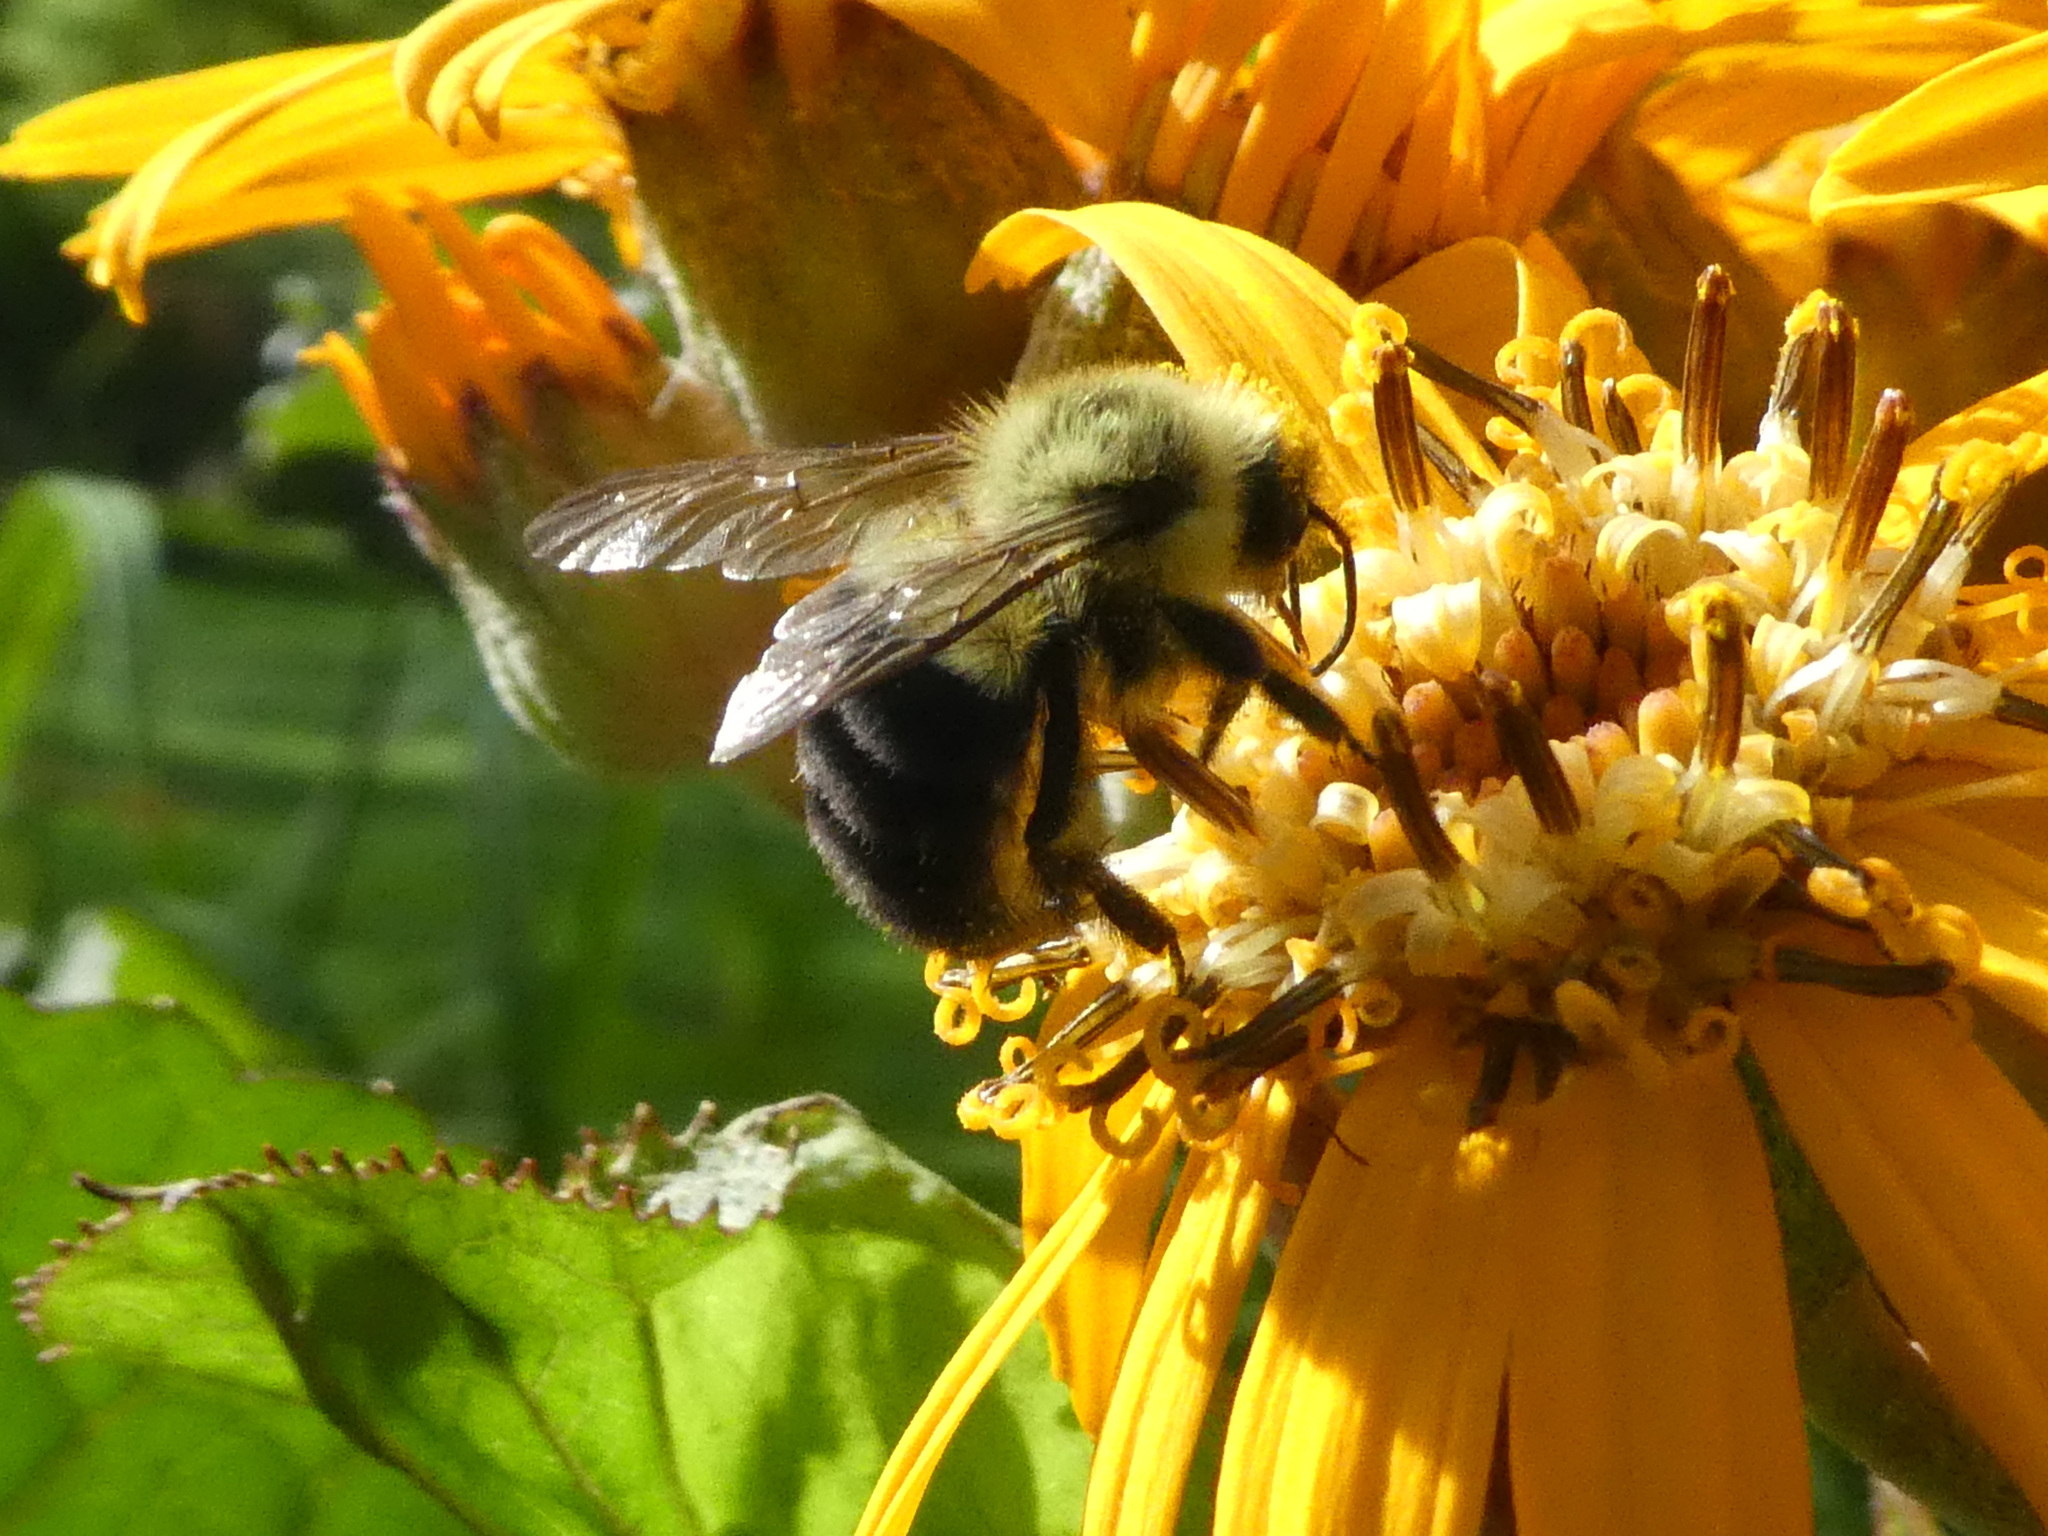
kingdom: Animalia
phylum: Arthropoda
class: Insecta
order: Hymenoptera
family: Apidae
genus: Bombus
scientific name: Bombus impatiens
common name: Common eastern bumble bee
